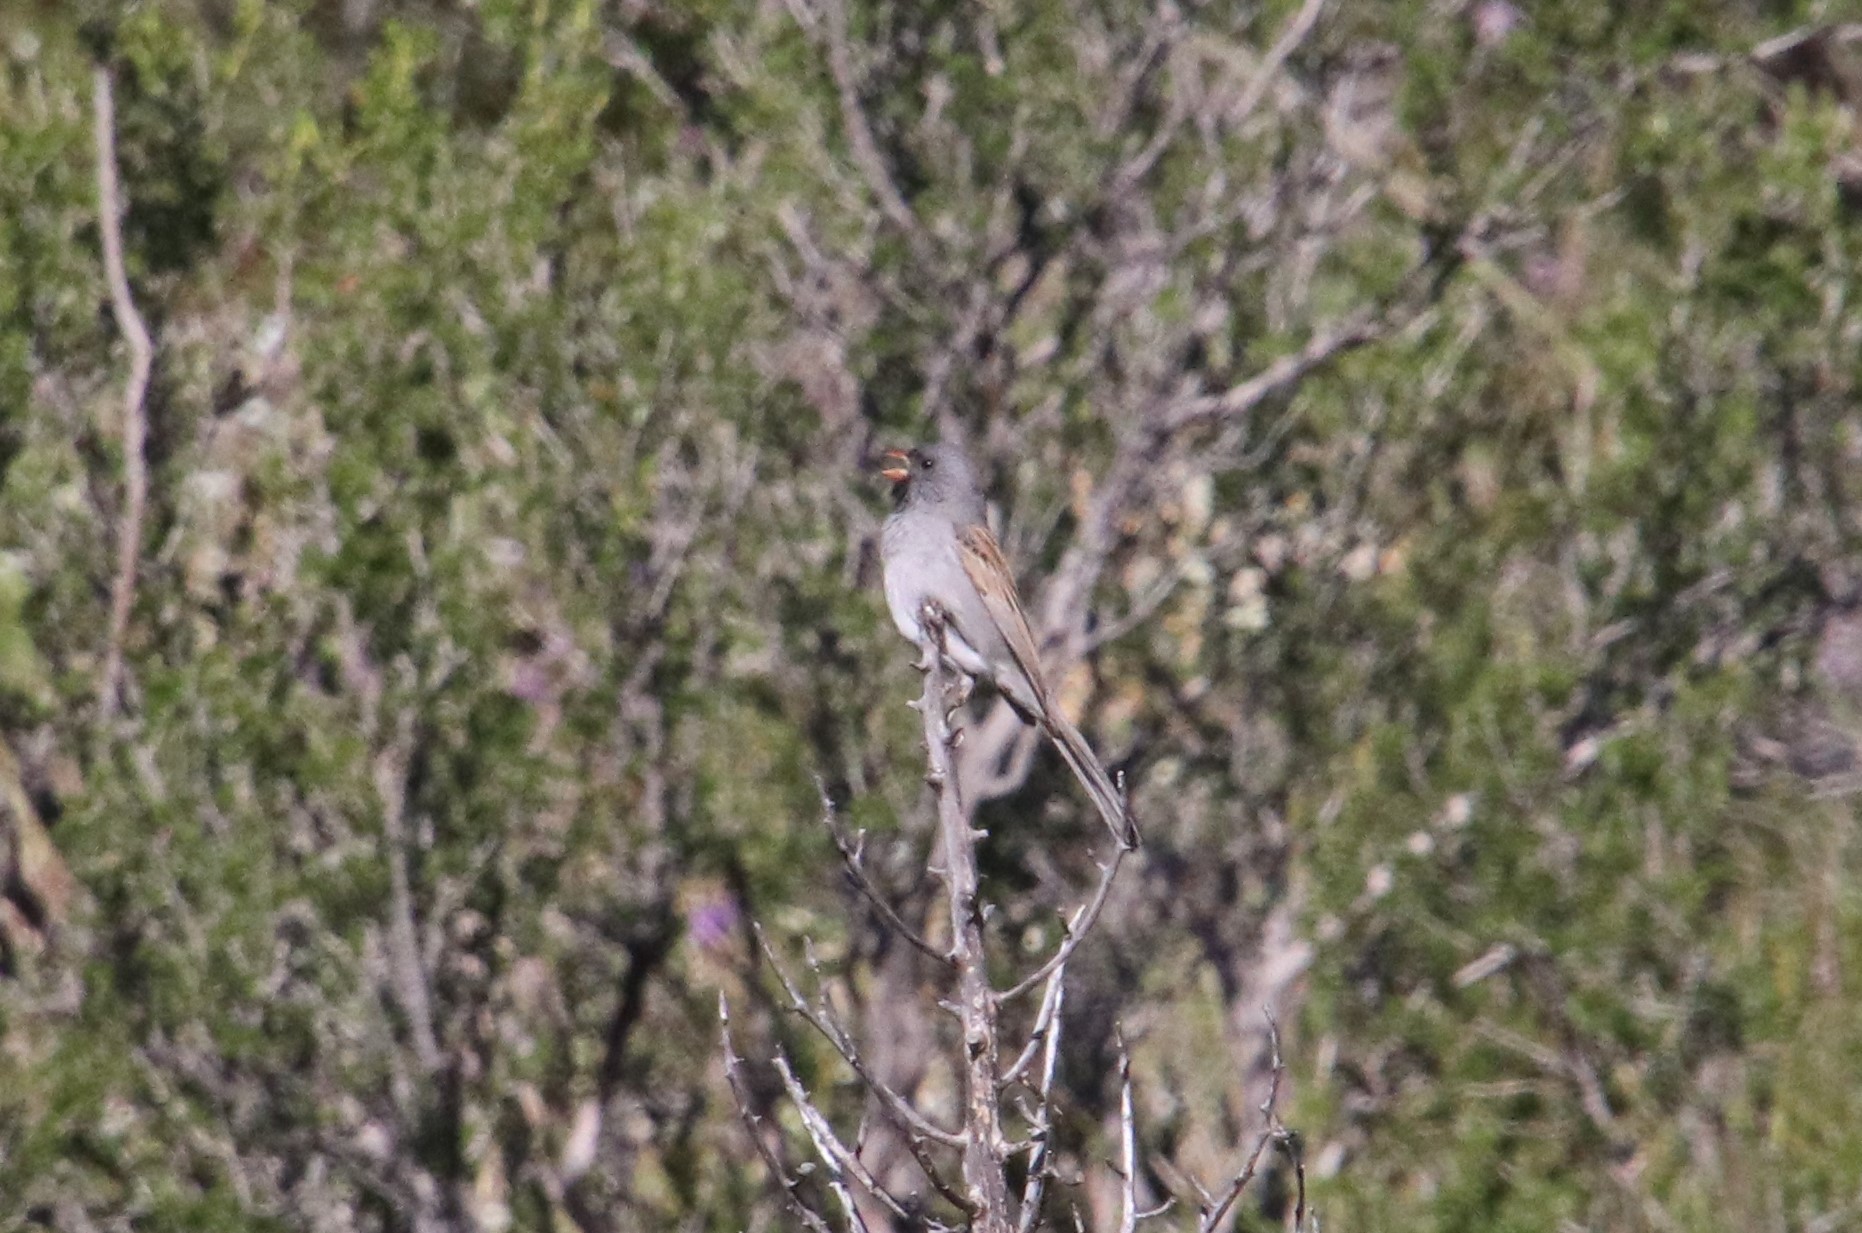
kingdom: Animalia
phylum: Chordata
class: Aves
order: Passeriformes
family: Passerellidae
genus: Spizella
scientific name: Spizella atrogularis
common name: Black-chinned sparrow
